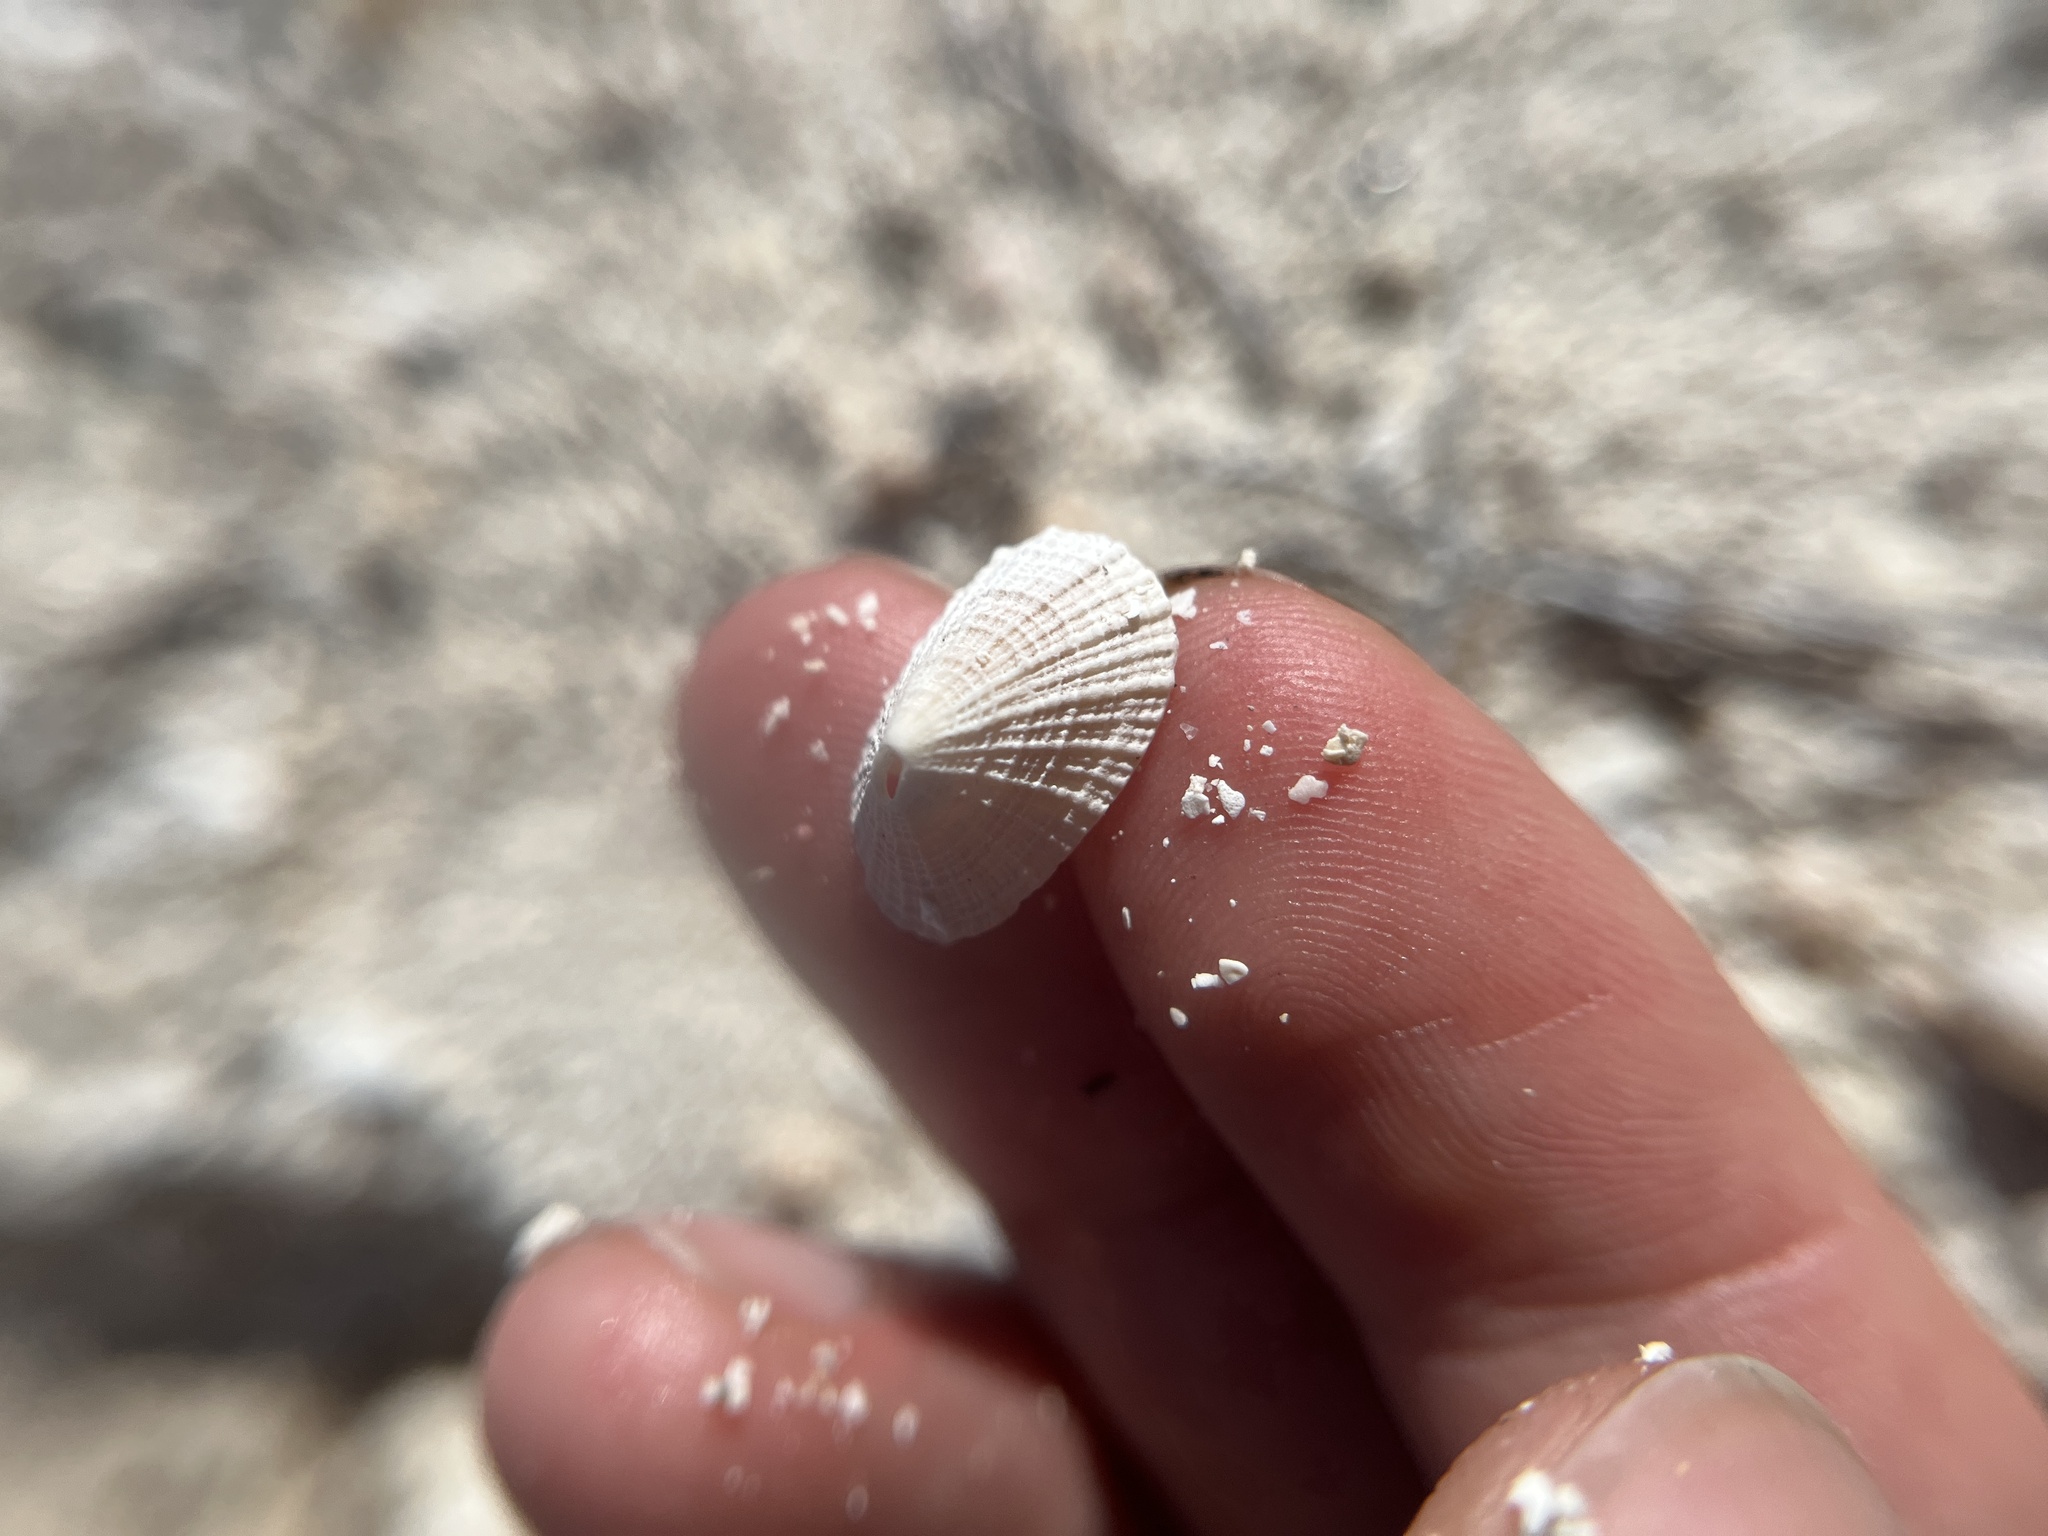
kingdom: Animalia
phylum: Mollusca
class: Gastropoda
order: Lepetellida
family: Fissurellidae
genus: Diodora
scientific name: Diodora cayenensis
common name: Cayenne keyhole limpet
